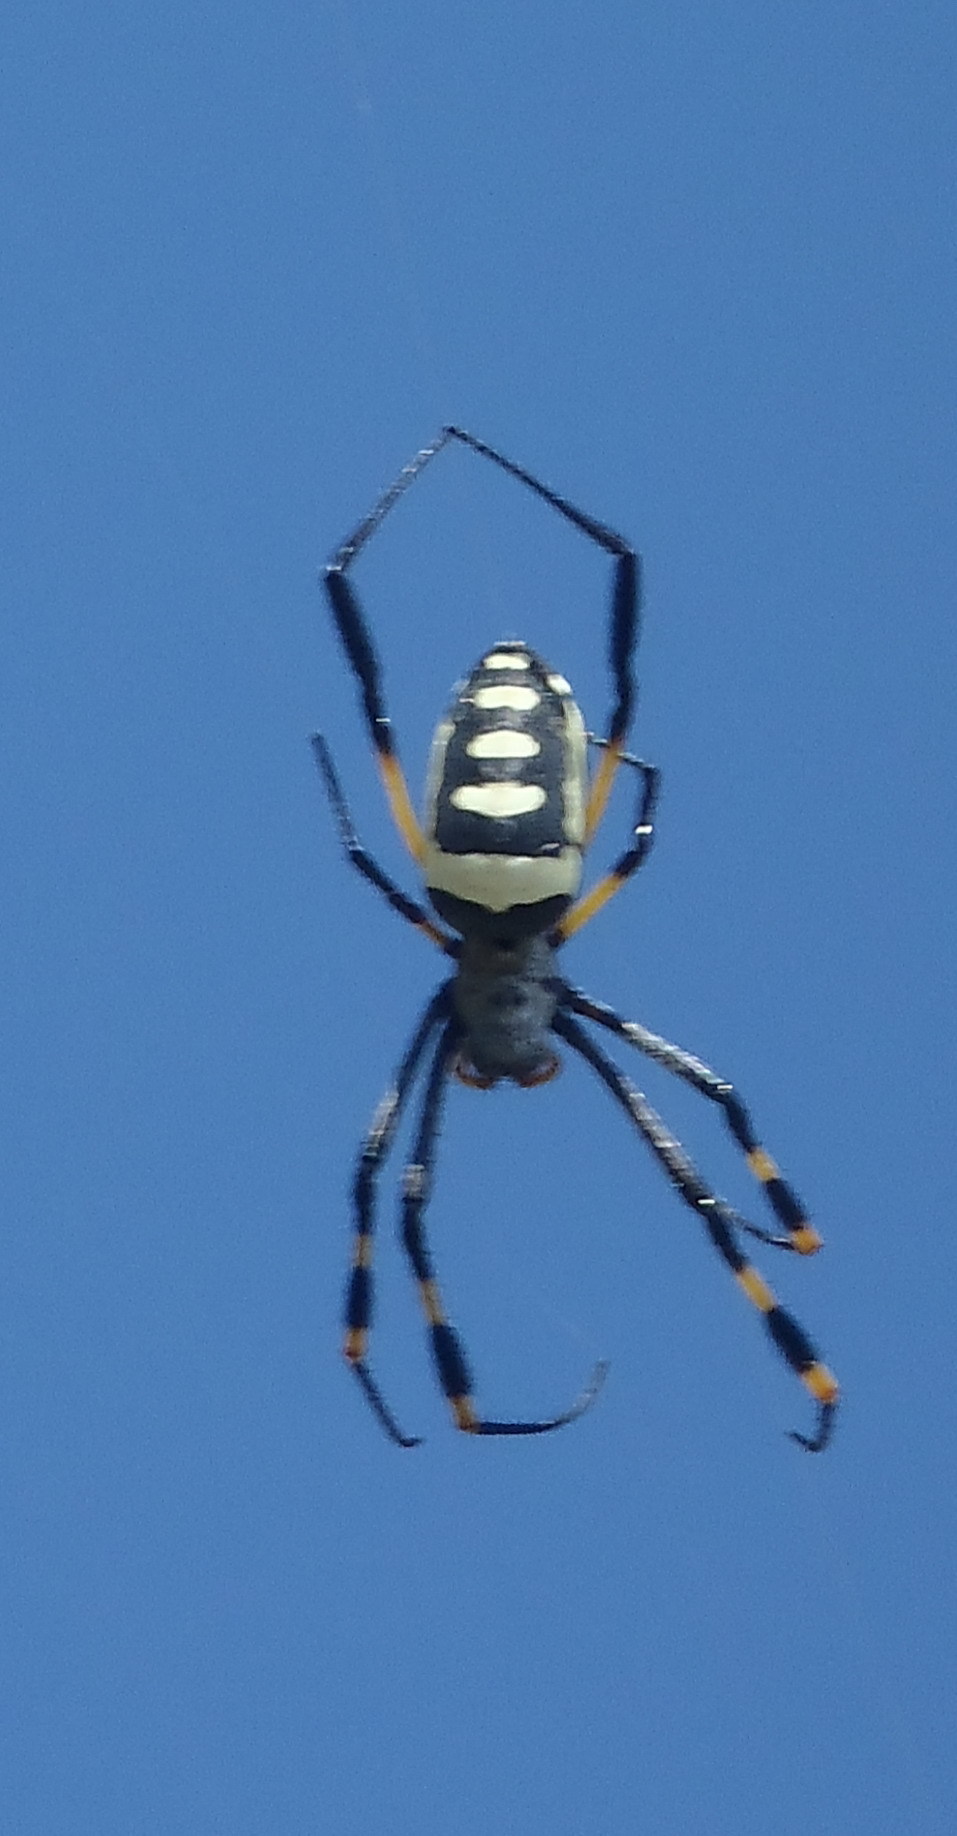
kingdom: Animalia
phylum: Arthropoda
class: Arachnida
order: Araneae
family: Araneidae
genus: Trichonephila
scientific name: Trichonephila senegalensis
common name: Banded golden orb weaver
